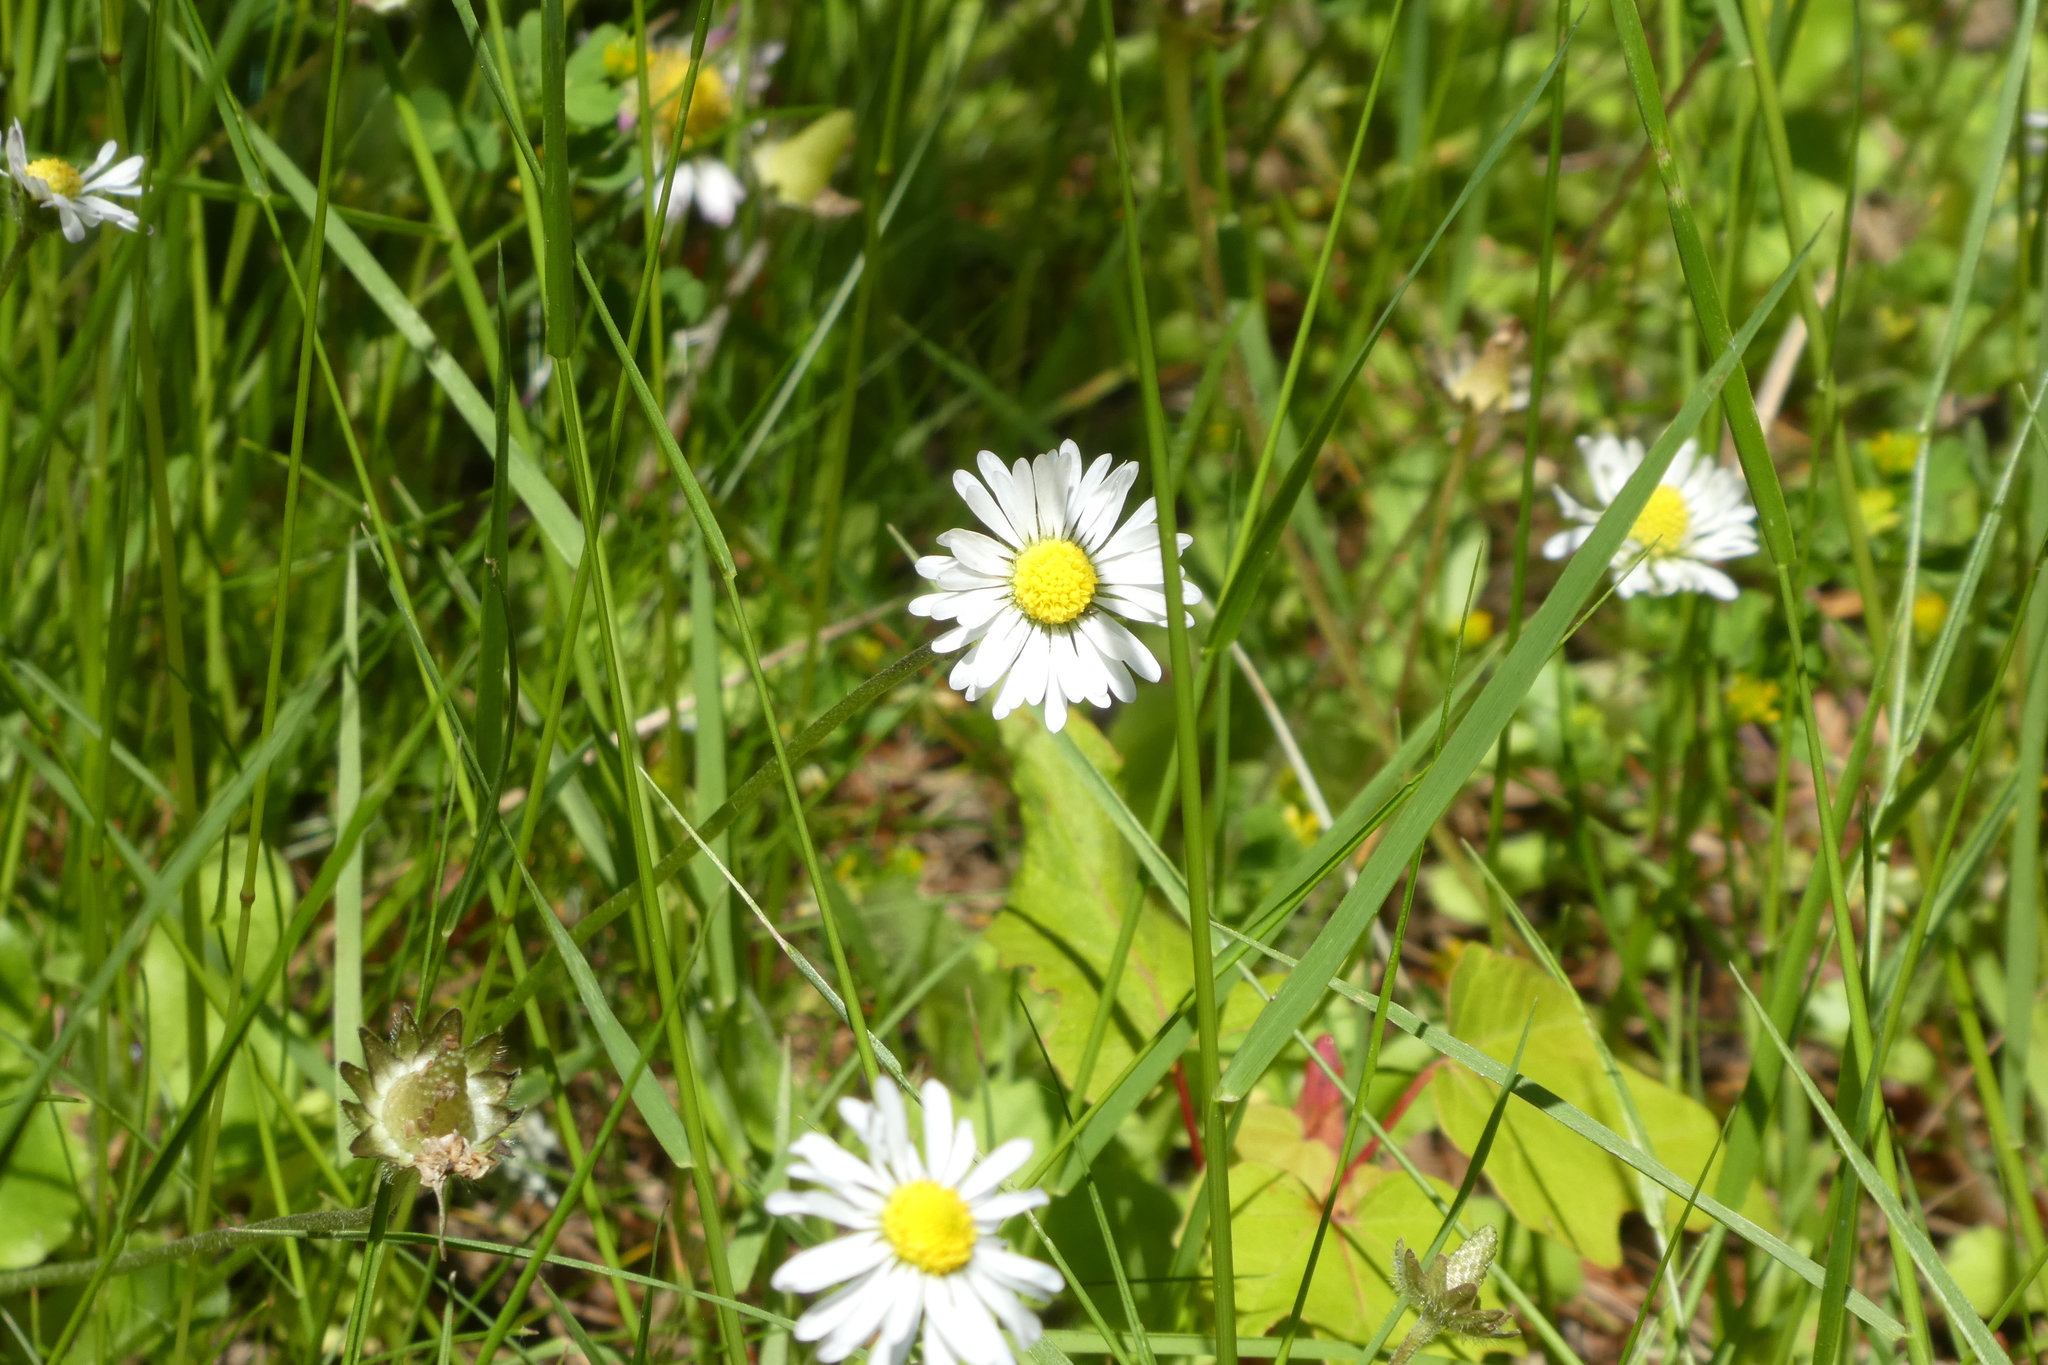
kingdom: Plantae
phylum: Tracheophyta
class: Magnoliopsida
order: Asterales
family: Asteraceae
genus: Bellis
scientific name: Bellis perennis
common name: Lawndaisy
